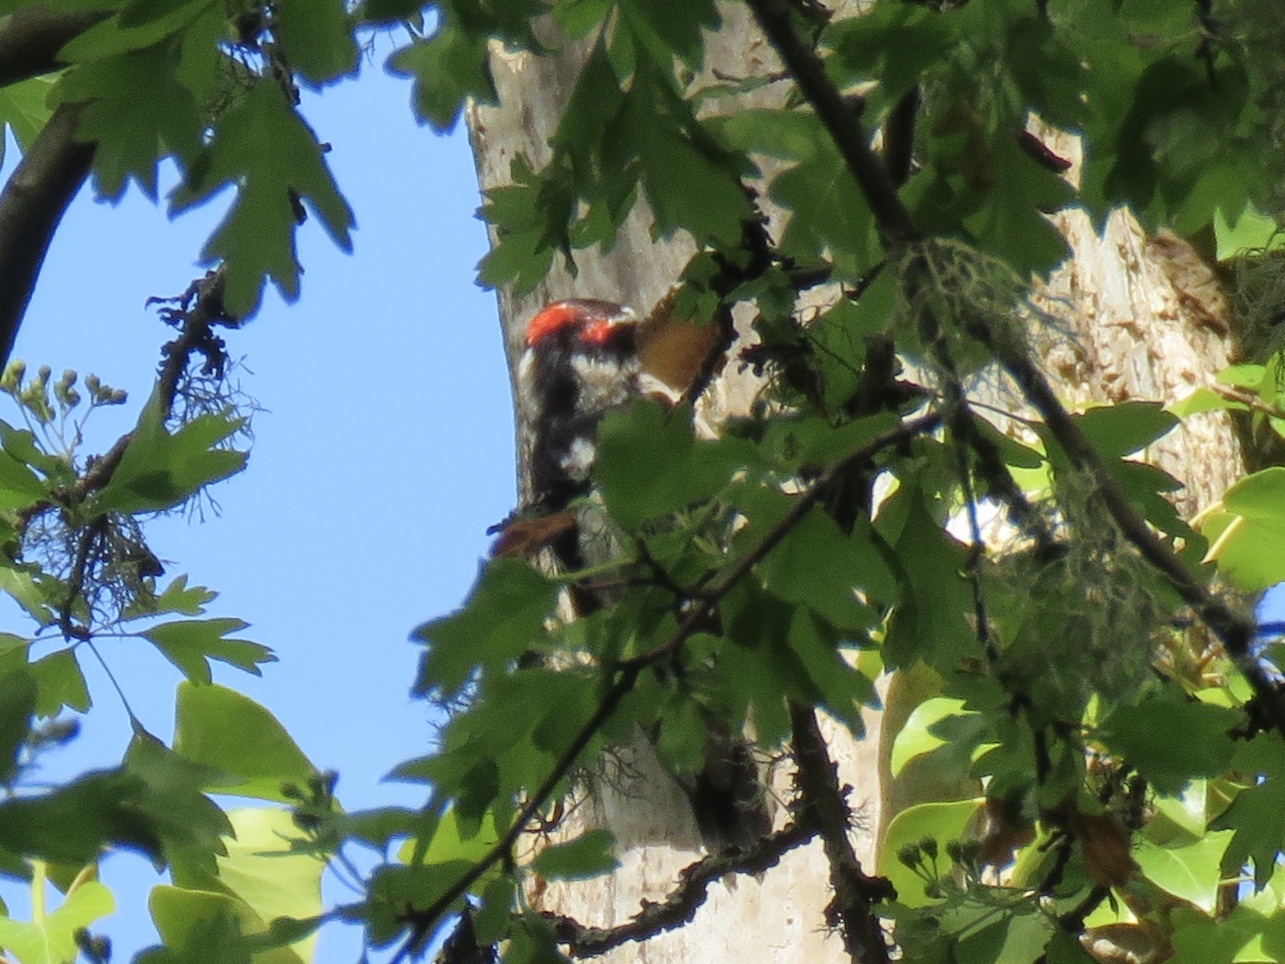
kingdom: Animalia
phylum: Chordata
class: Aves
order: Piciformes
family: Picidae
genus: Dryobates
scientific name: Dryobates pubescens
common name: Downy woodpecker
